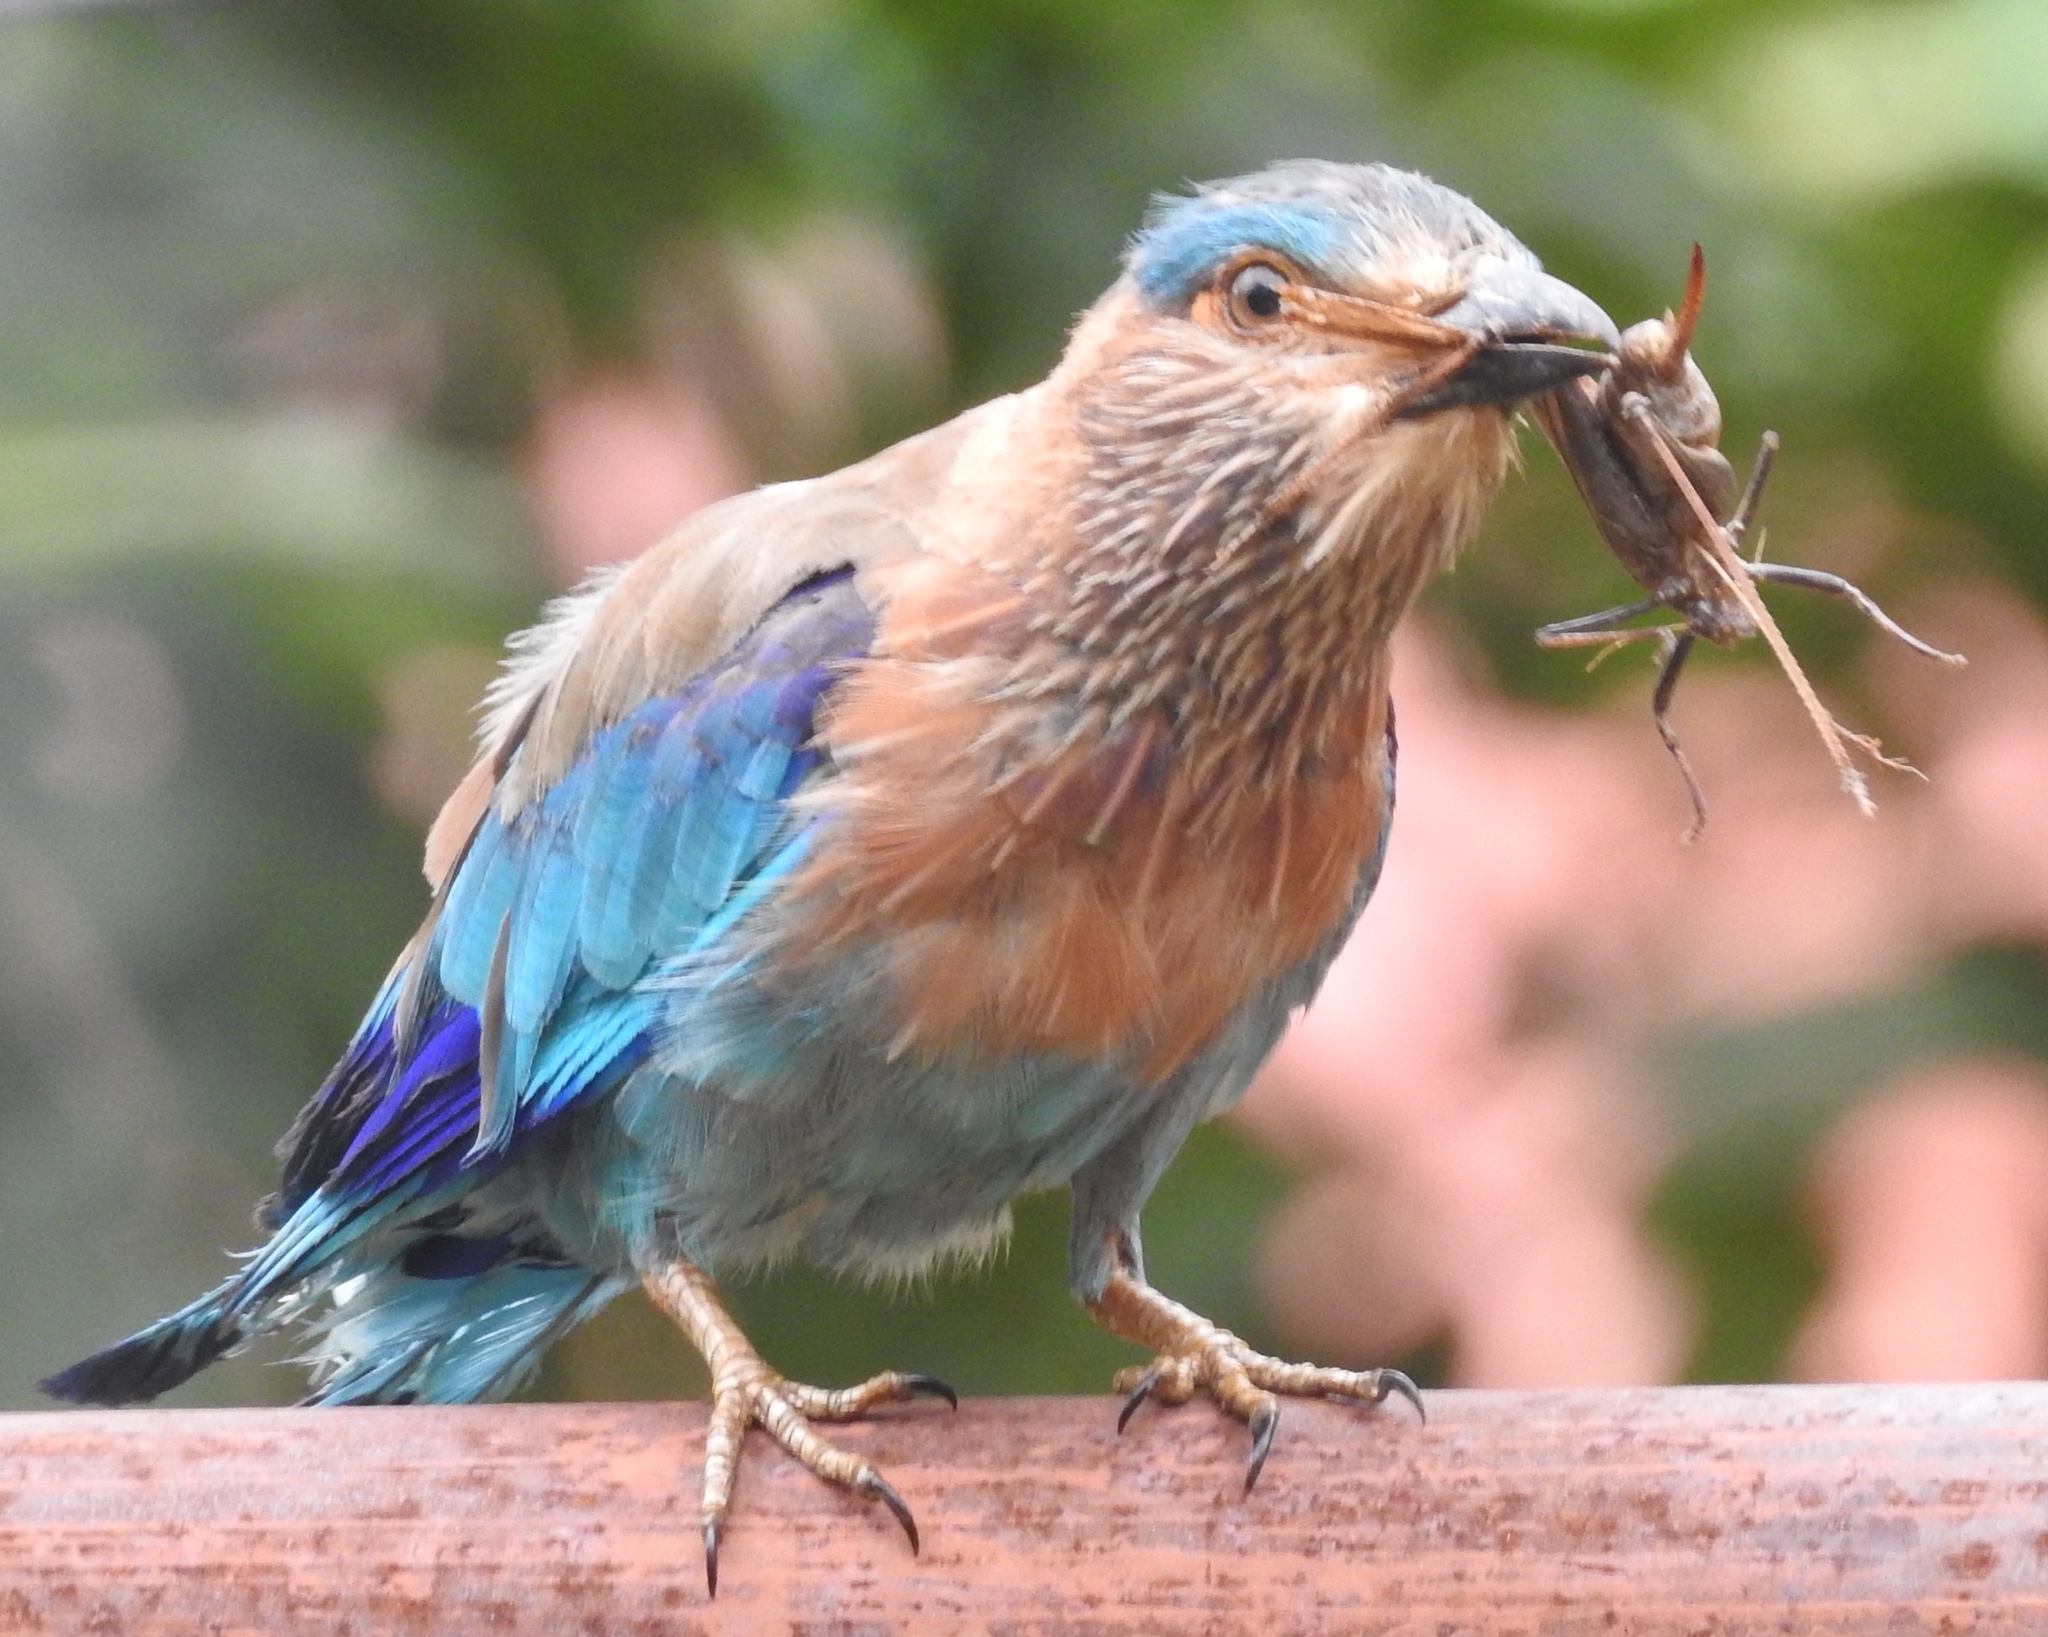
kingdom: Animalia
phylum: Chordata
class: Aves
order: Coraciiformes
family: Coraciidae
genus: Coracias
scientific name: Coracias benghalensis
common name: Indian roller
